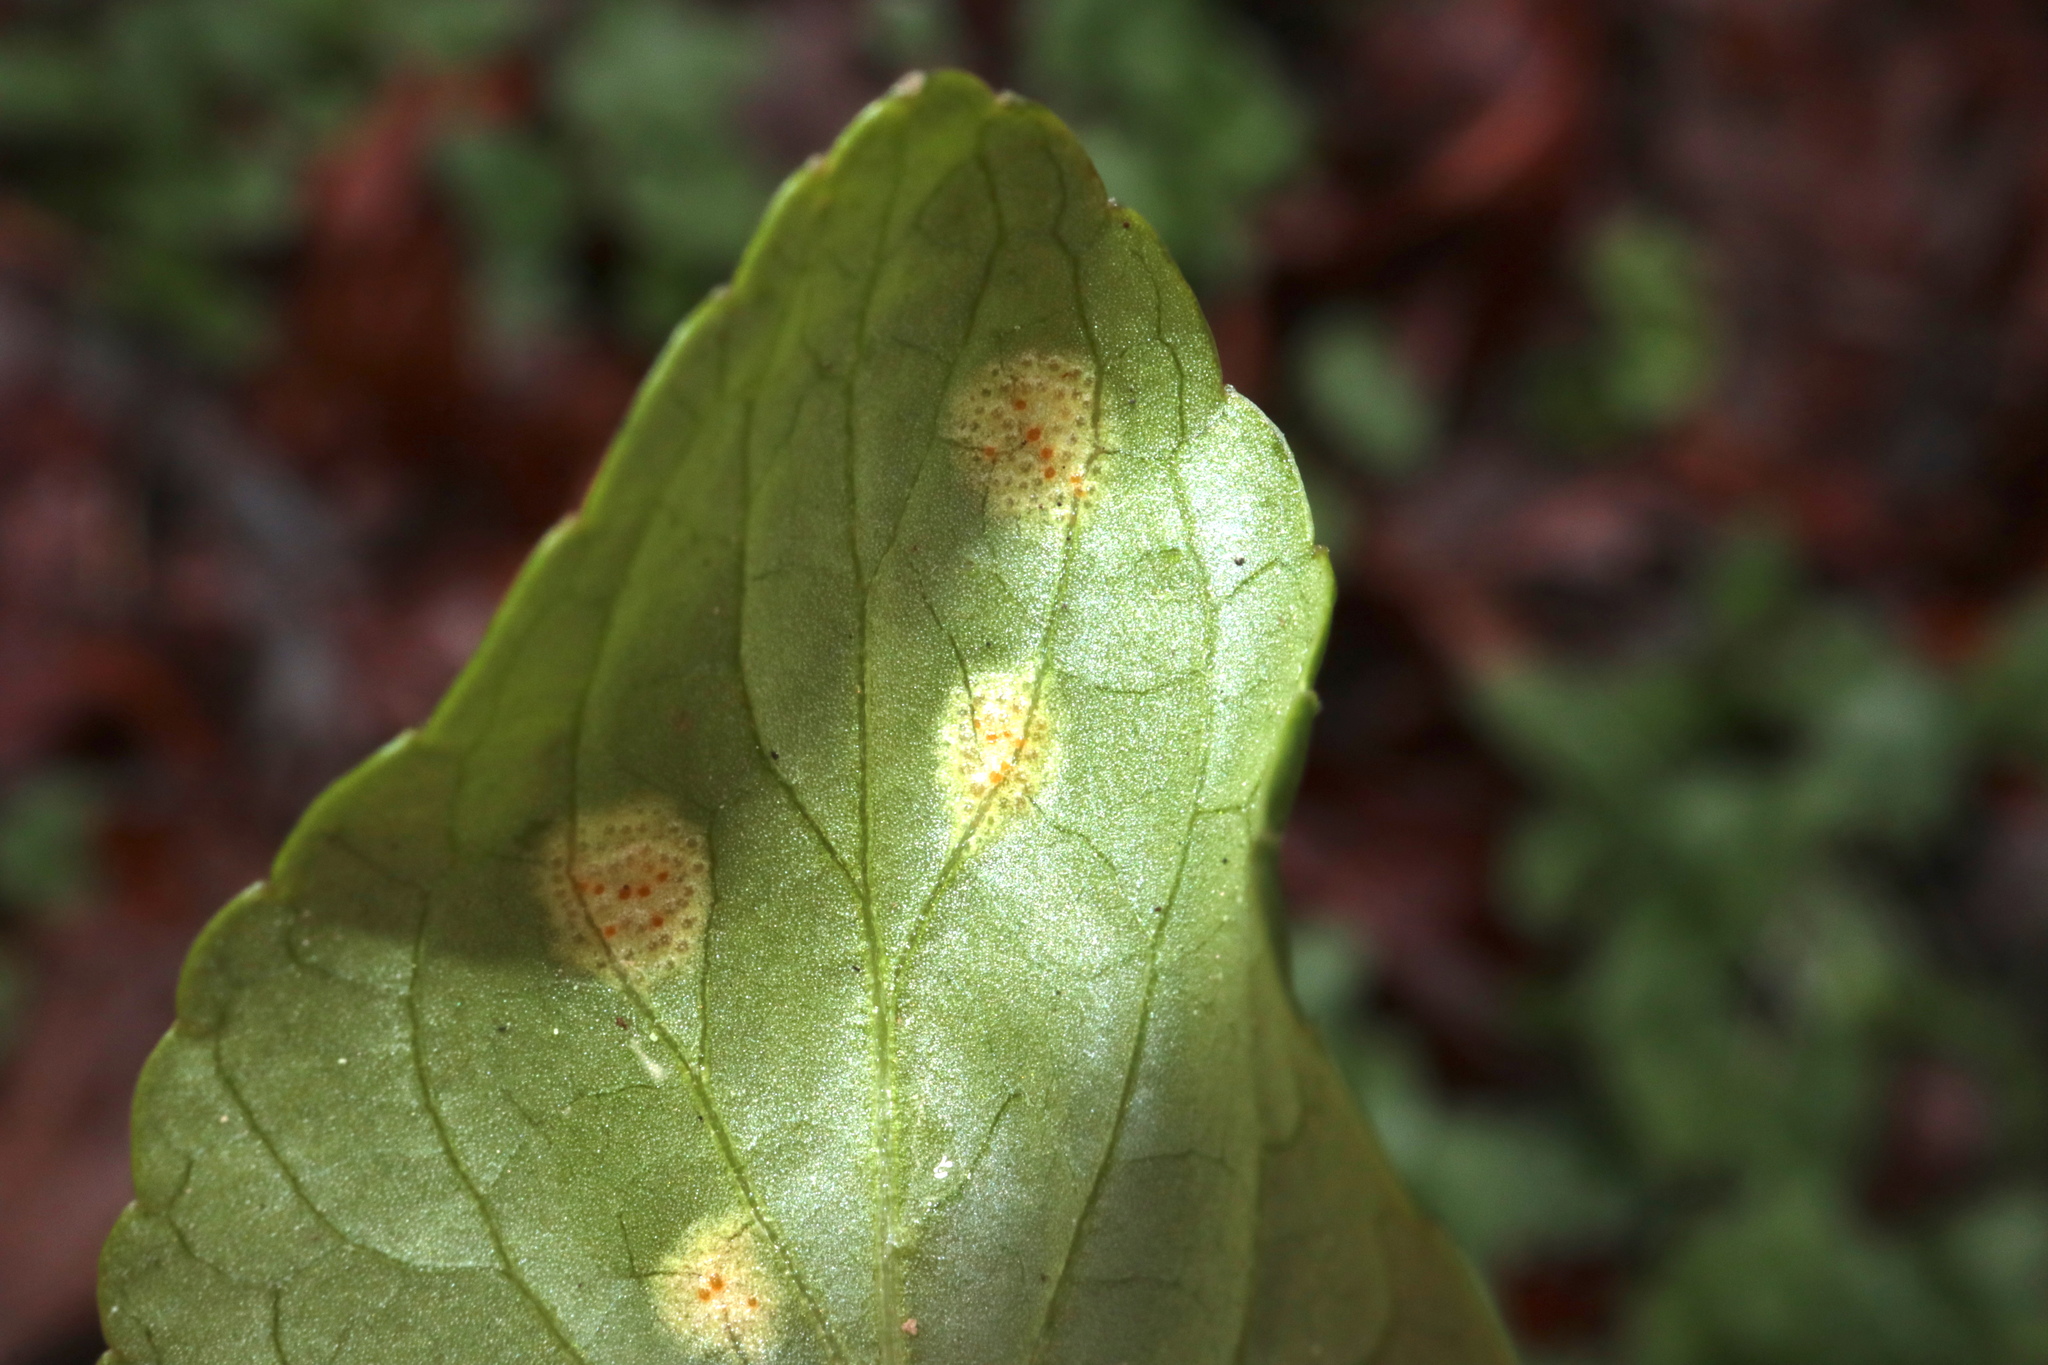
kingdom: Fungi
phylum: Basidiomycota
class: Pucciniomycetes
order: Pucciniales
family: Pucciniaceae
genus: Puccinia
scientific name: Puccinia violae
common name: Violet rust
